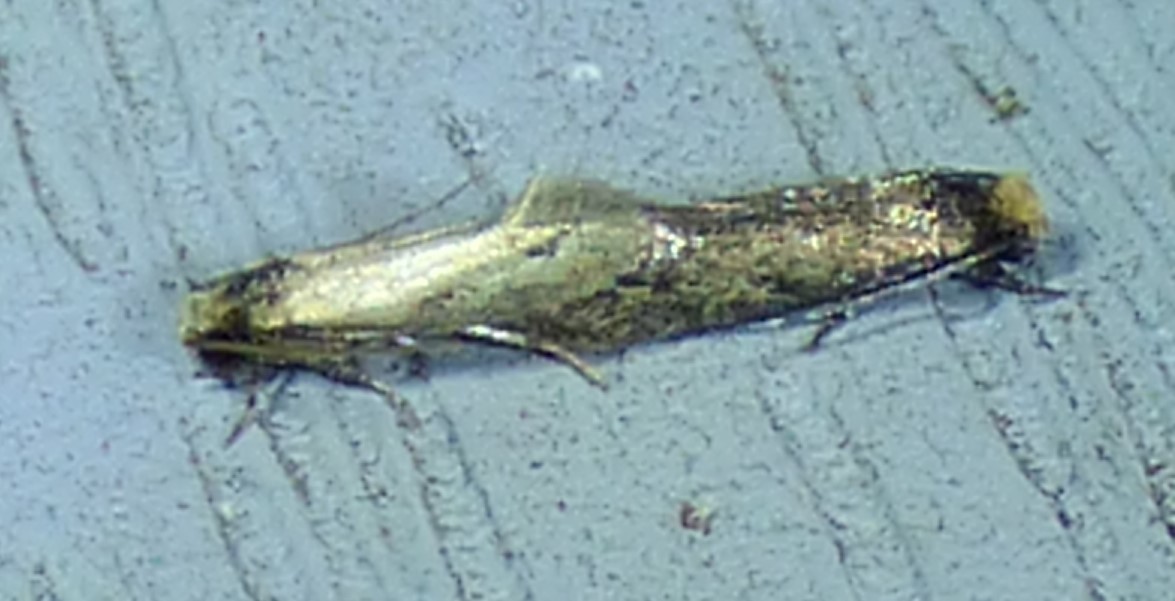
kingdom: Animalia
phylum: Arthropoda
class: Insecta
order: Lepidoptera
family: Meessiidae
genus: Homostinea
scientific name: Homostinea curviliniella
